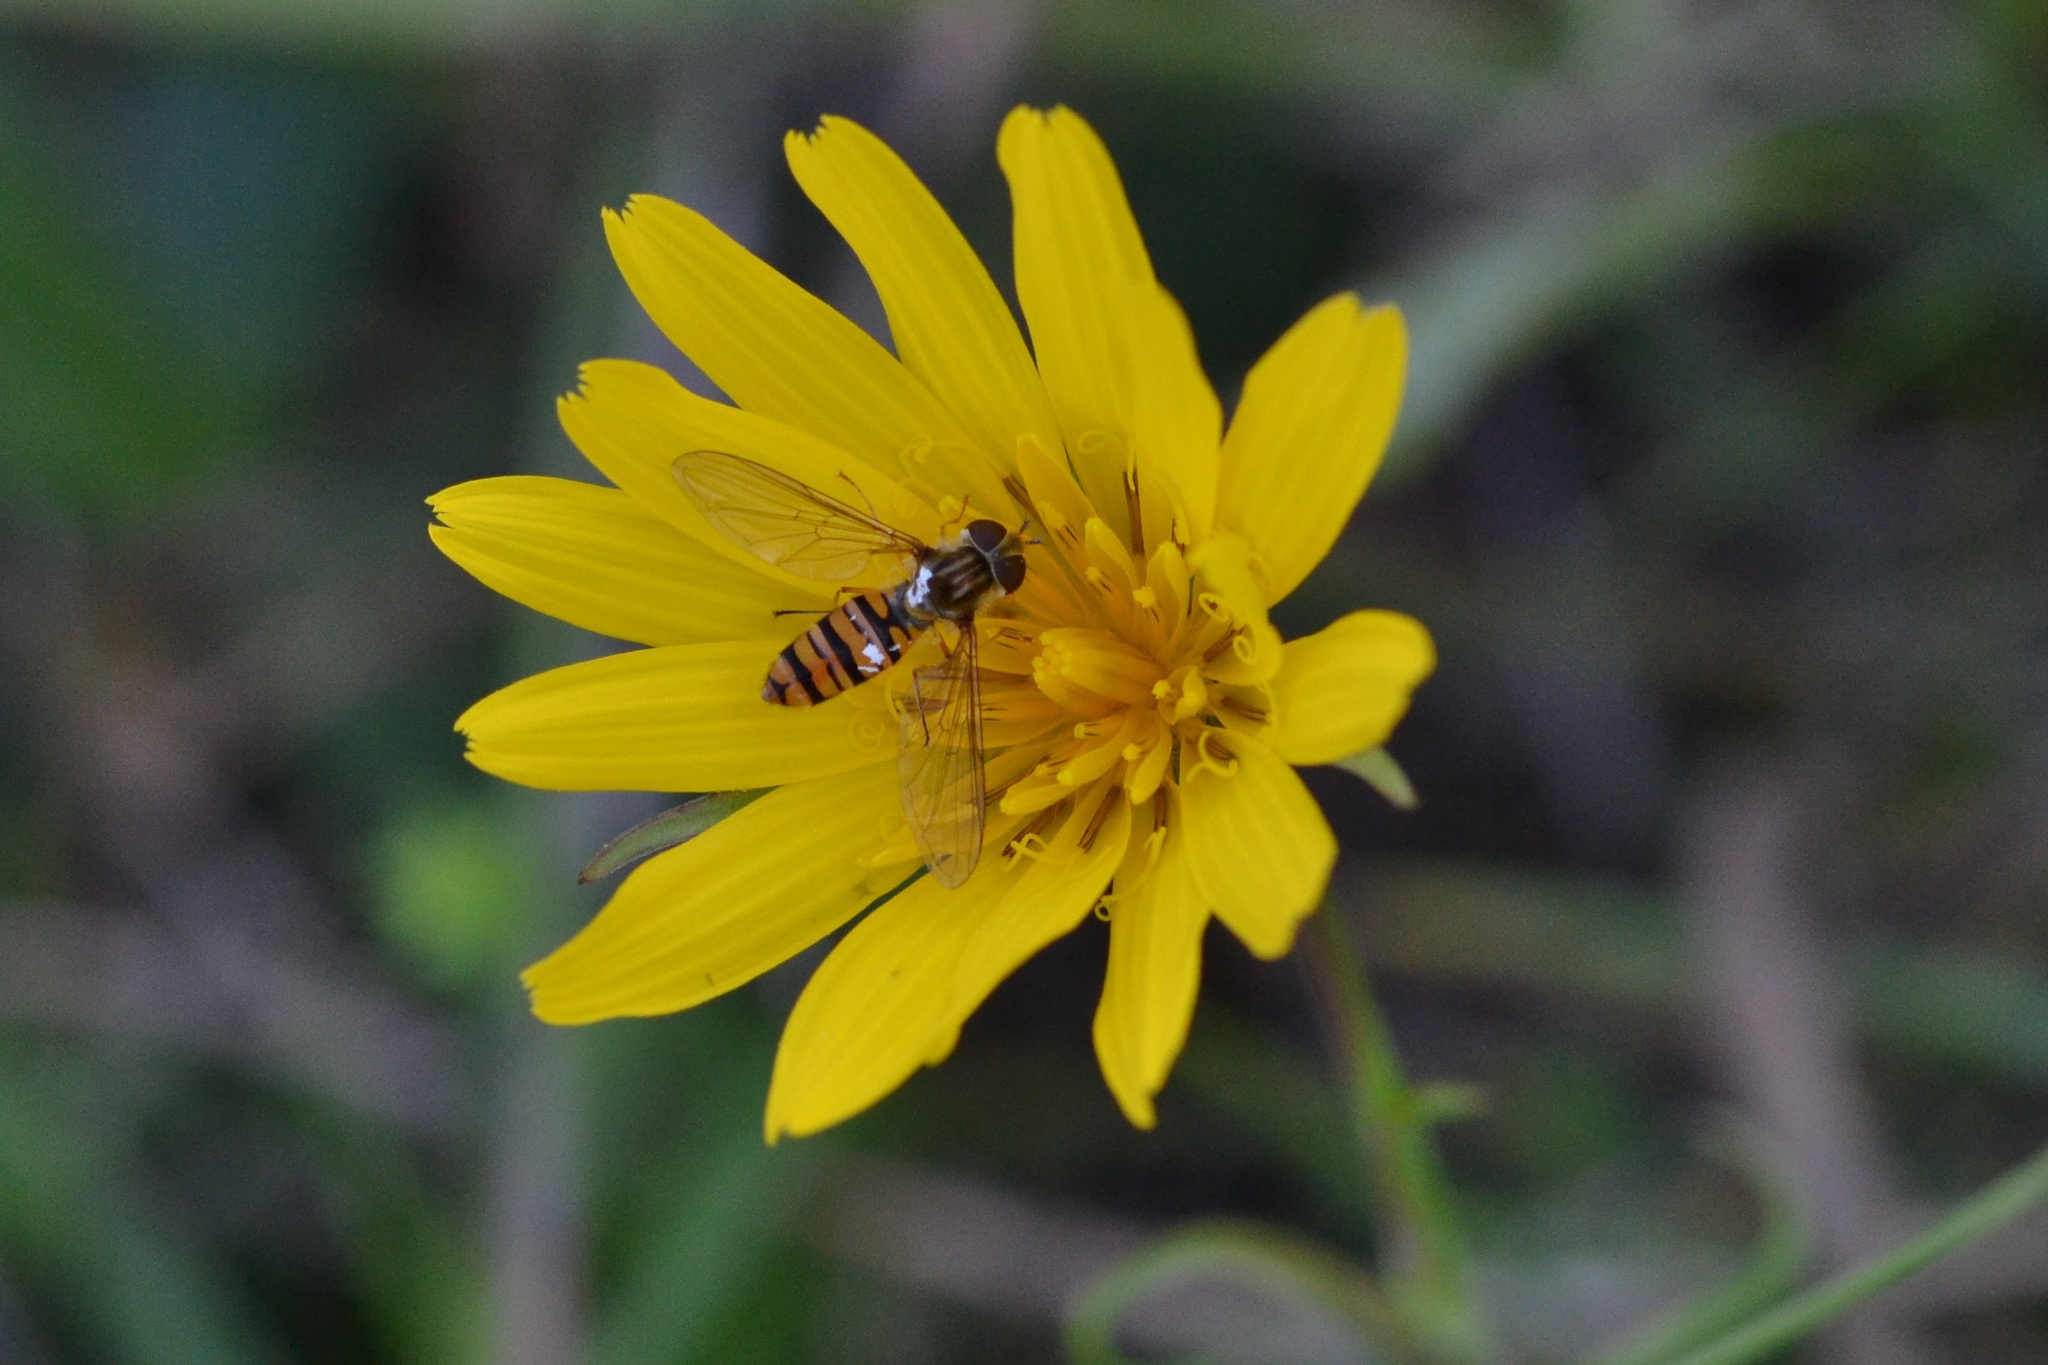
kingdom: Plantae
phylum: Tracheophyta
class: Magnoliopsida
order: Asterales
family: Asteraceae
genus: Tragopogon
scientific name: Tragopogon orientalis
